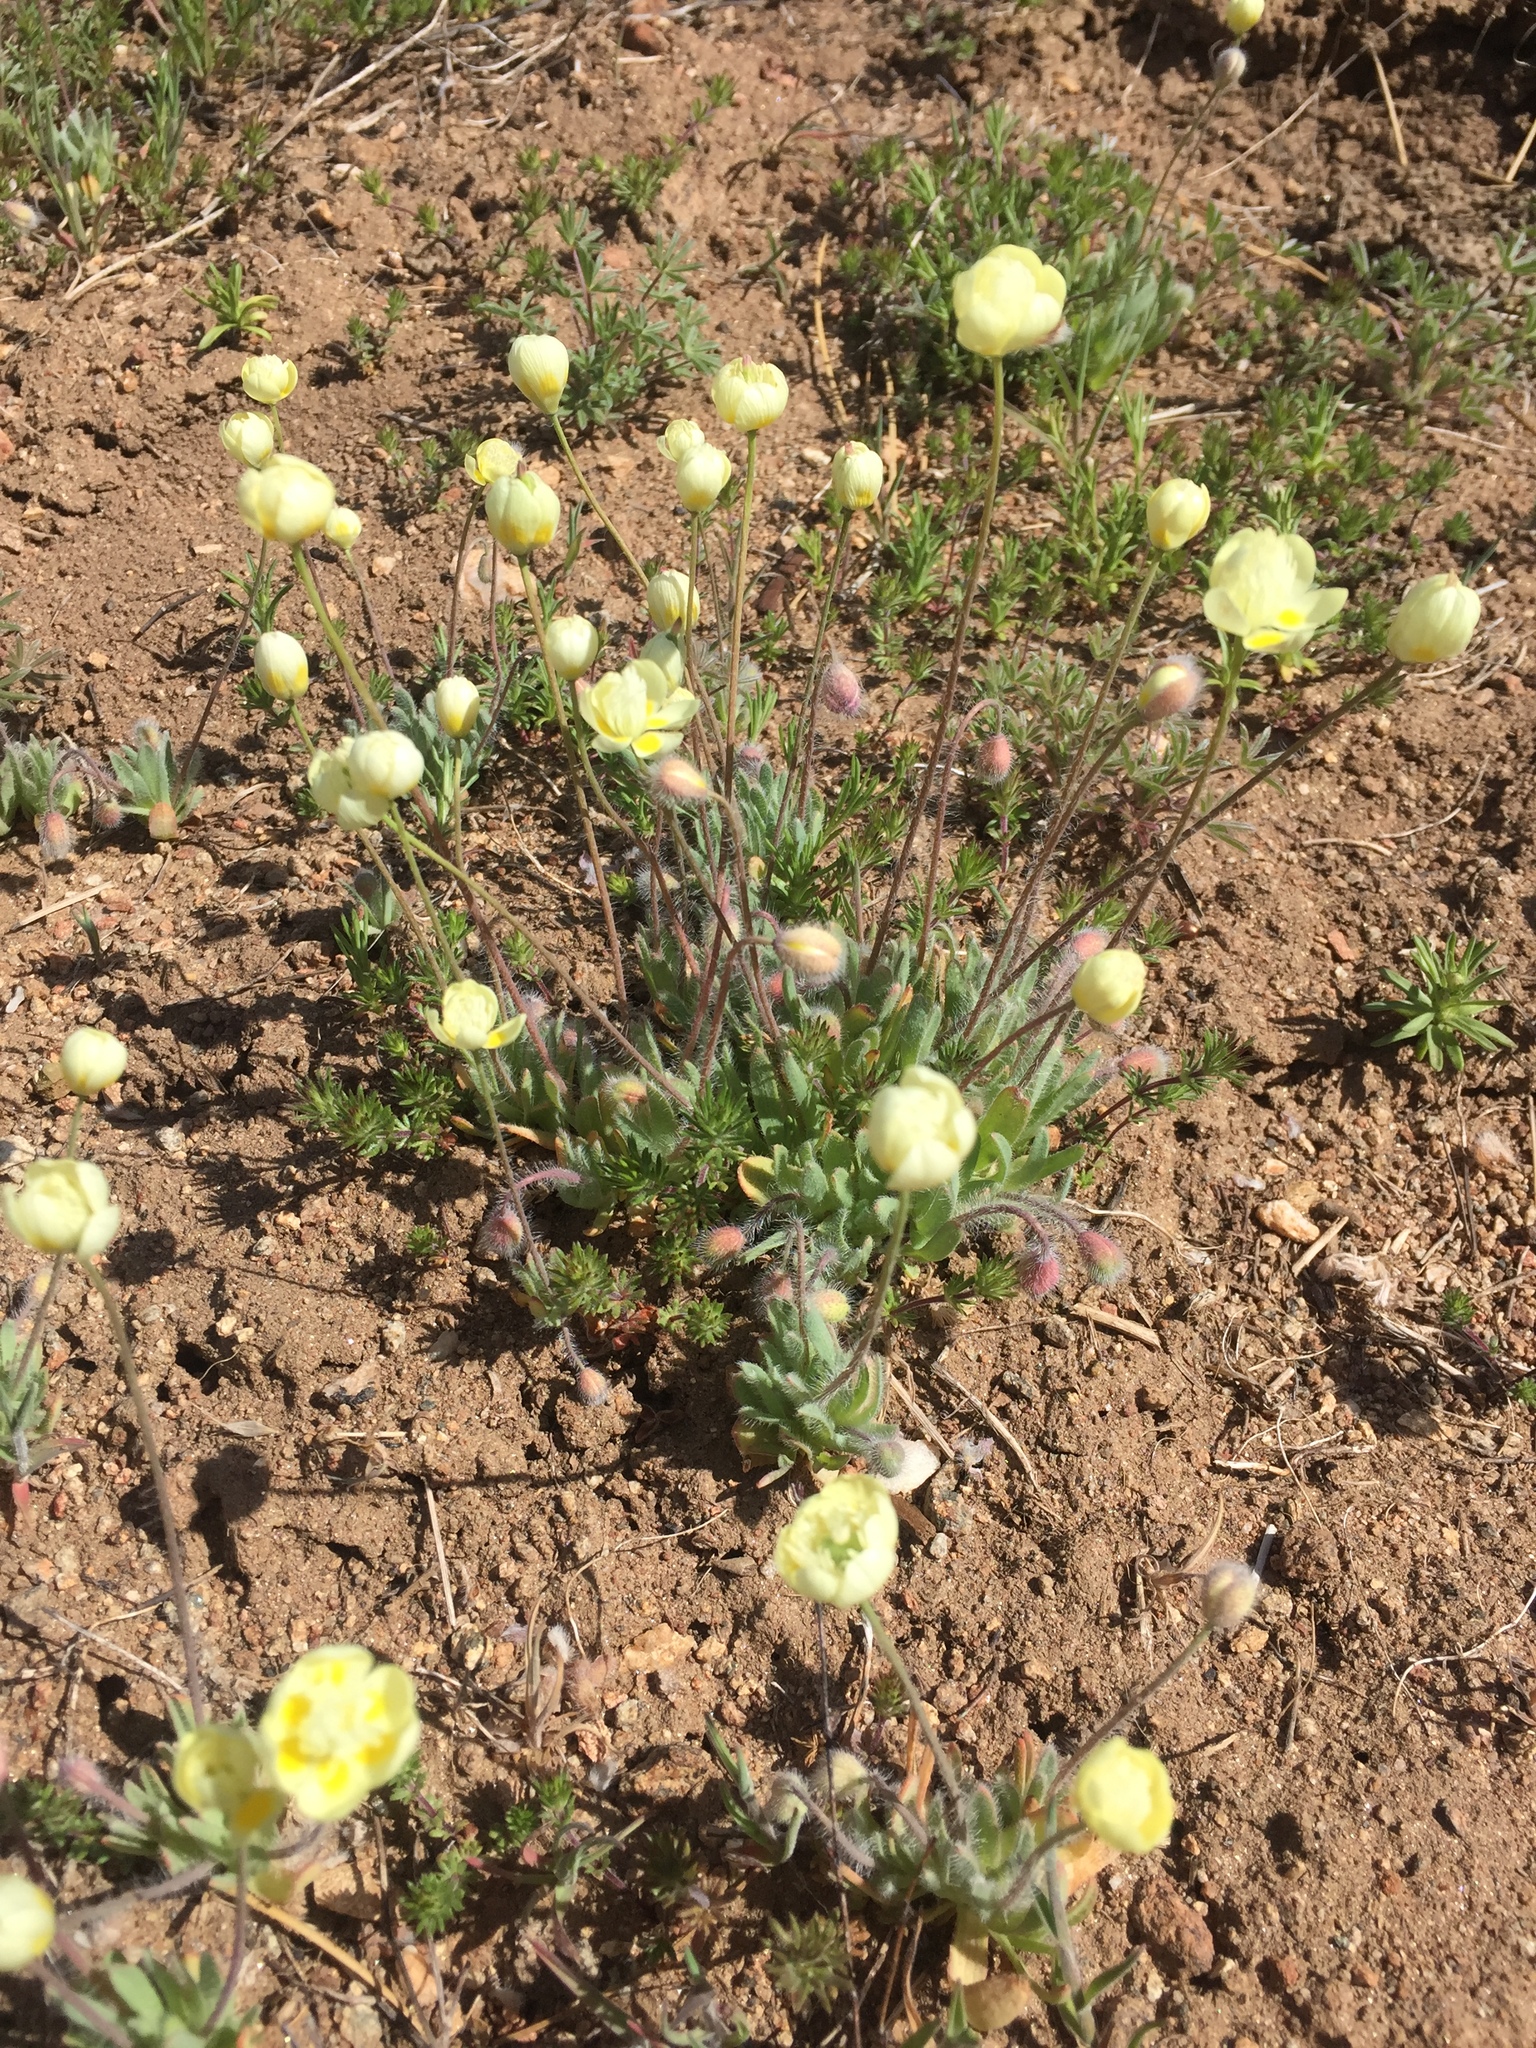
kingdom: Plantae
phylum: Tracheophyta
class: Magnoliopsida
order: Ranunculales
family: Papaveraceae
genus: Platystemon
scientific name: Platystemon californicus
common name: Cream-cups
